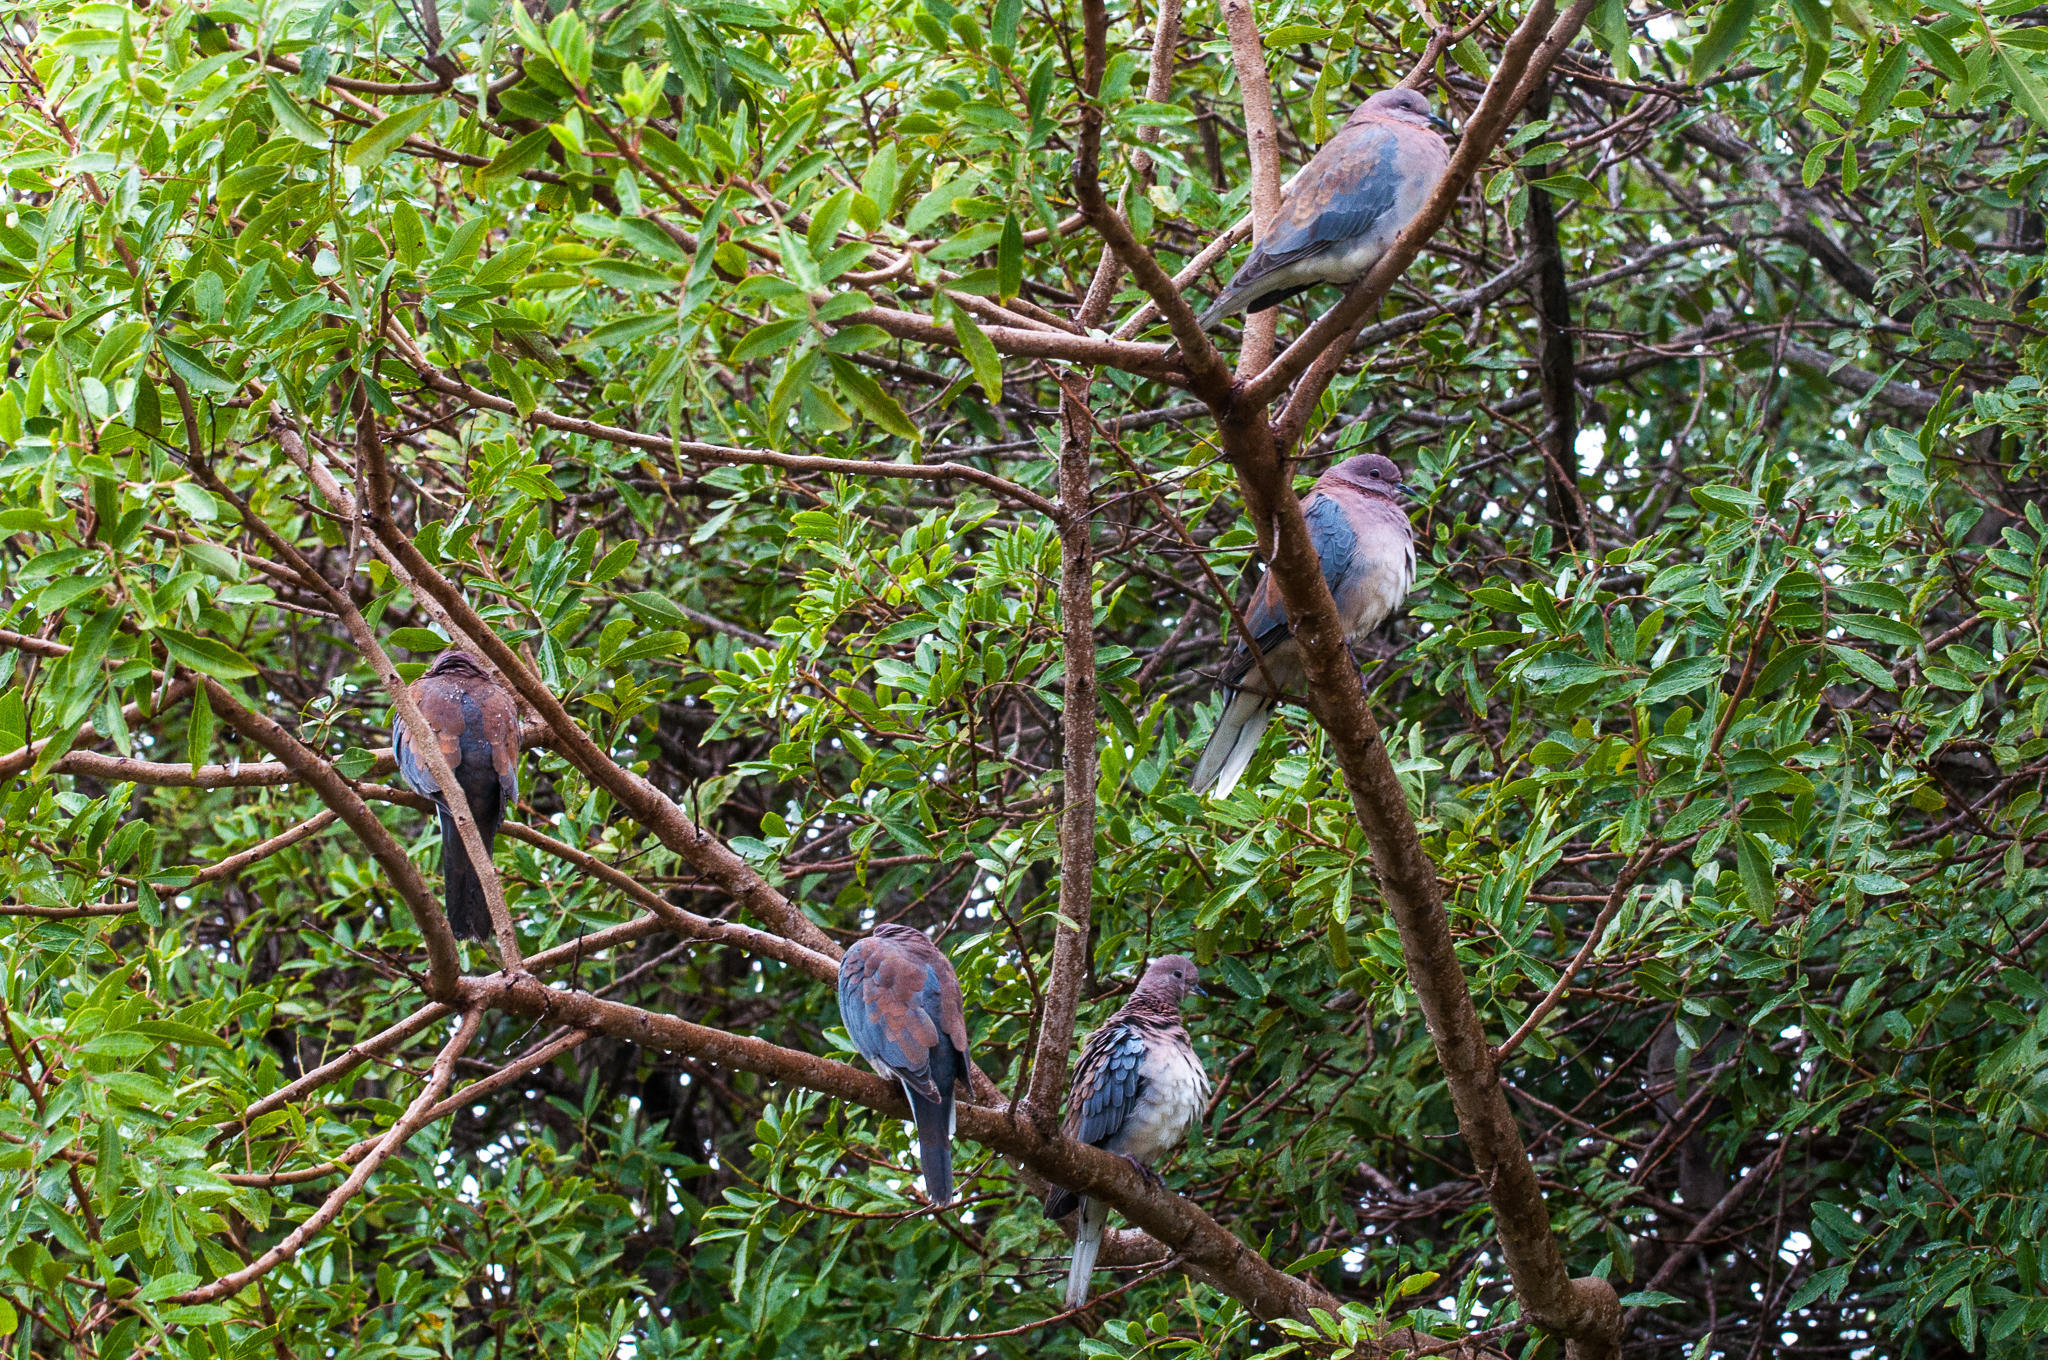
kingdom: Animalia
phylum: Chordata
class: Aves
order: Columbiformes
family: Columbidae
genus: Spilopelia
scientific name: Spilopelia senegalensis
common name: Laughing dove
